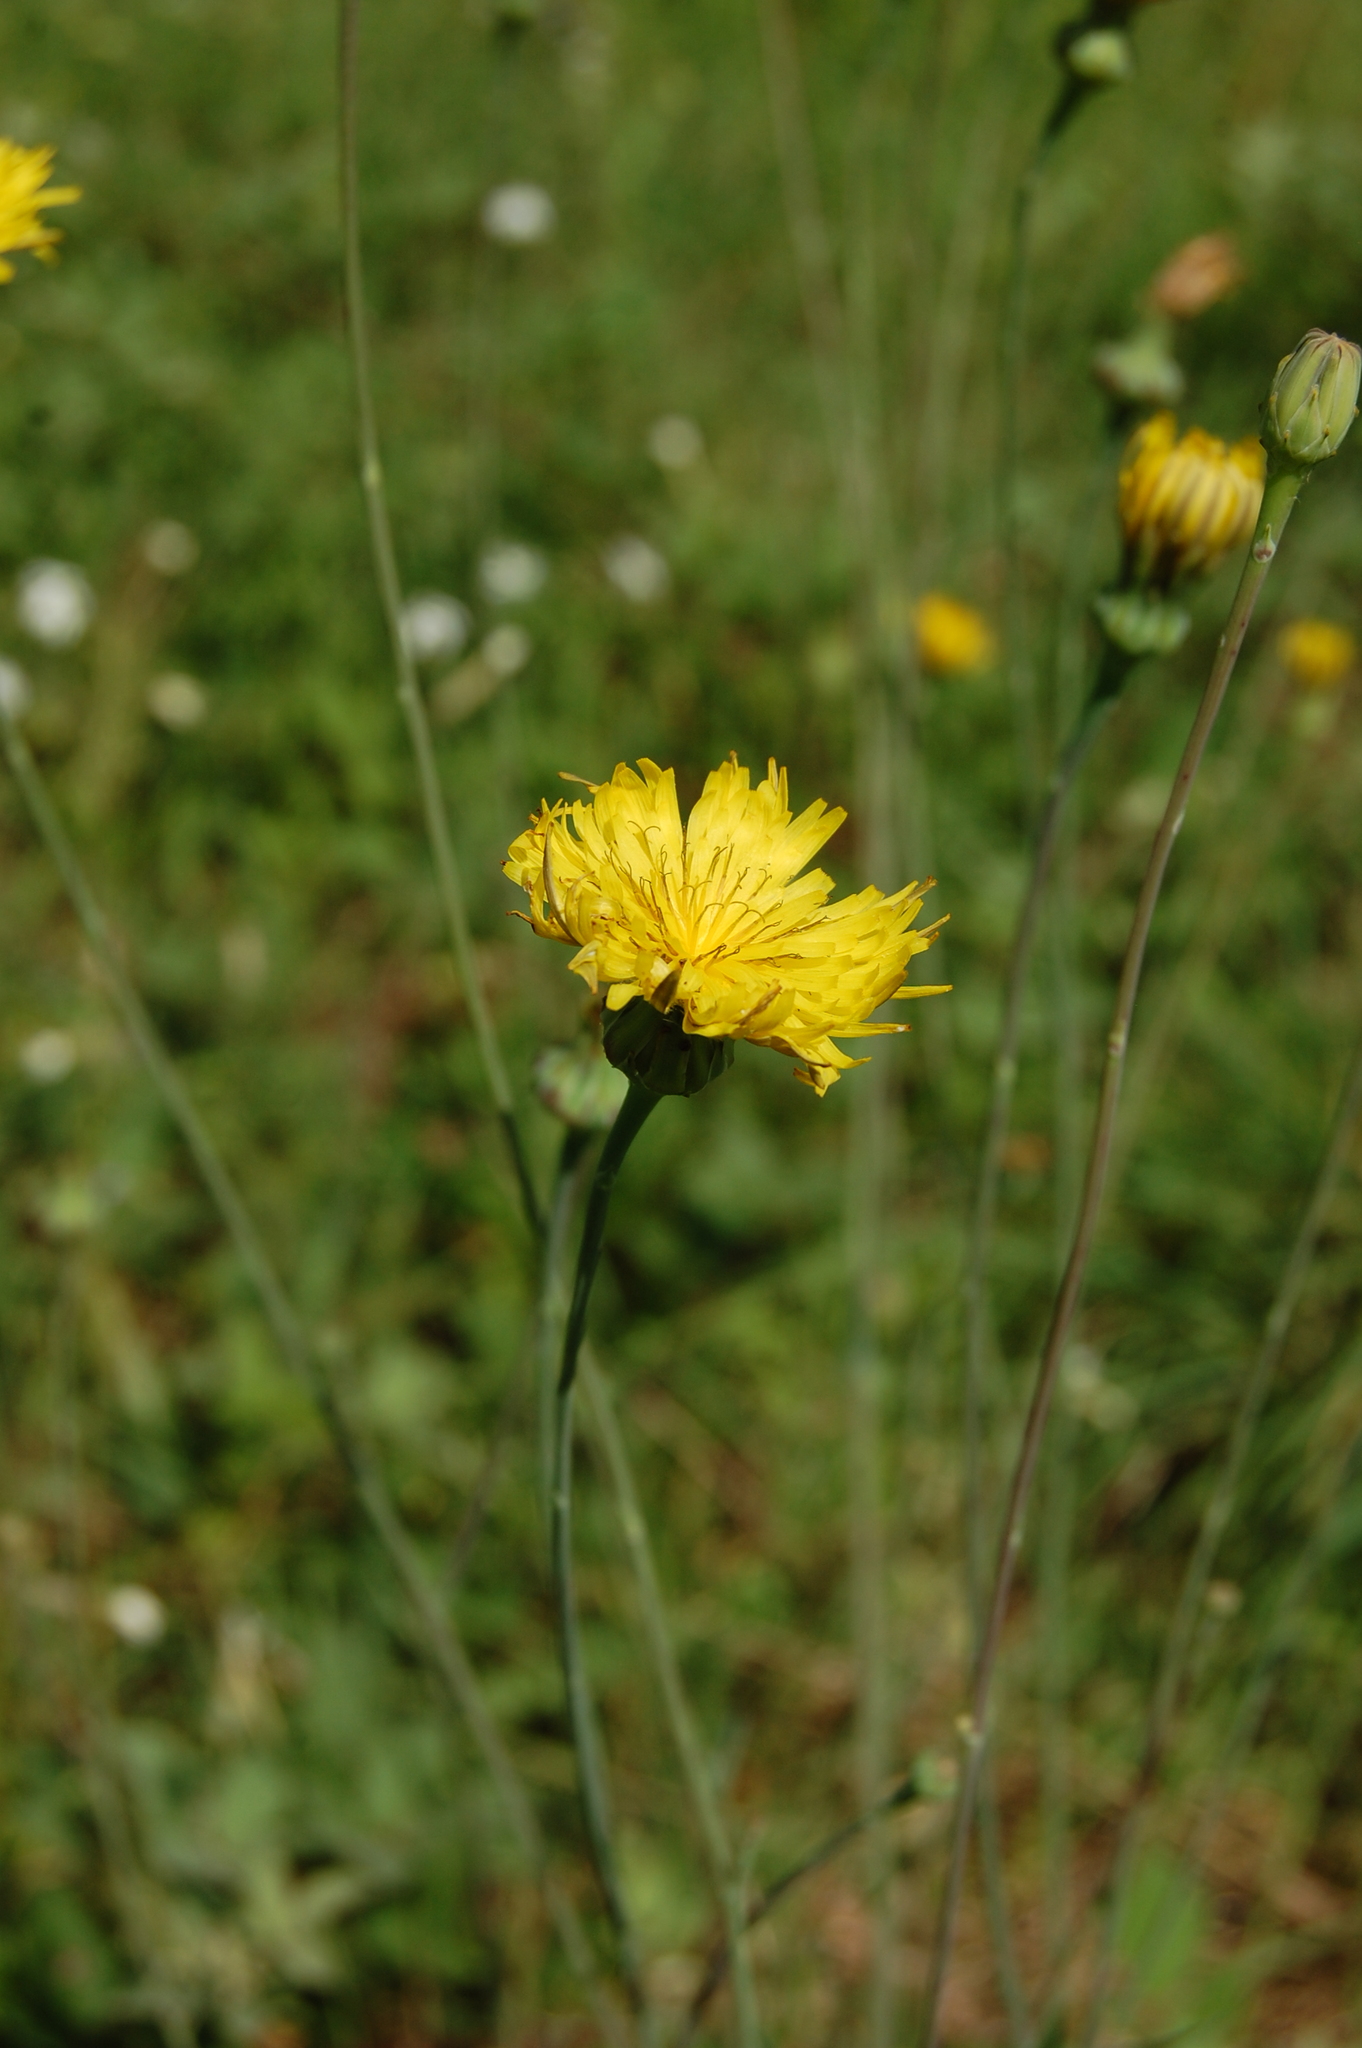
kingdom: Plantae
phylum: Tracheophyta
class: Magnoliopsida
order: Asterales
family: Asteraceae
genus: Reichardia
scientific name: Reichardia picroides
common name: Common brighteyes
